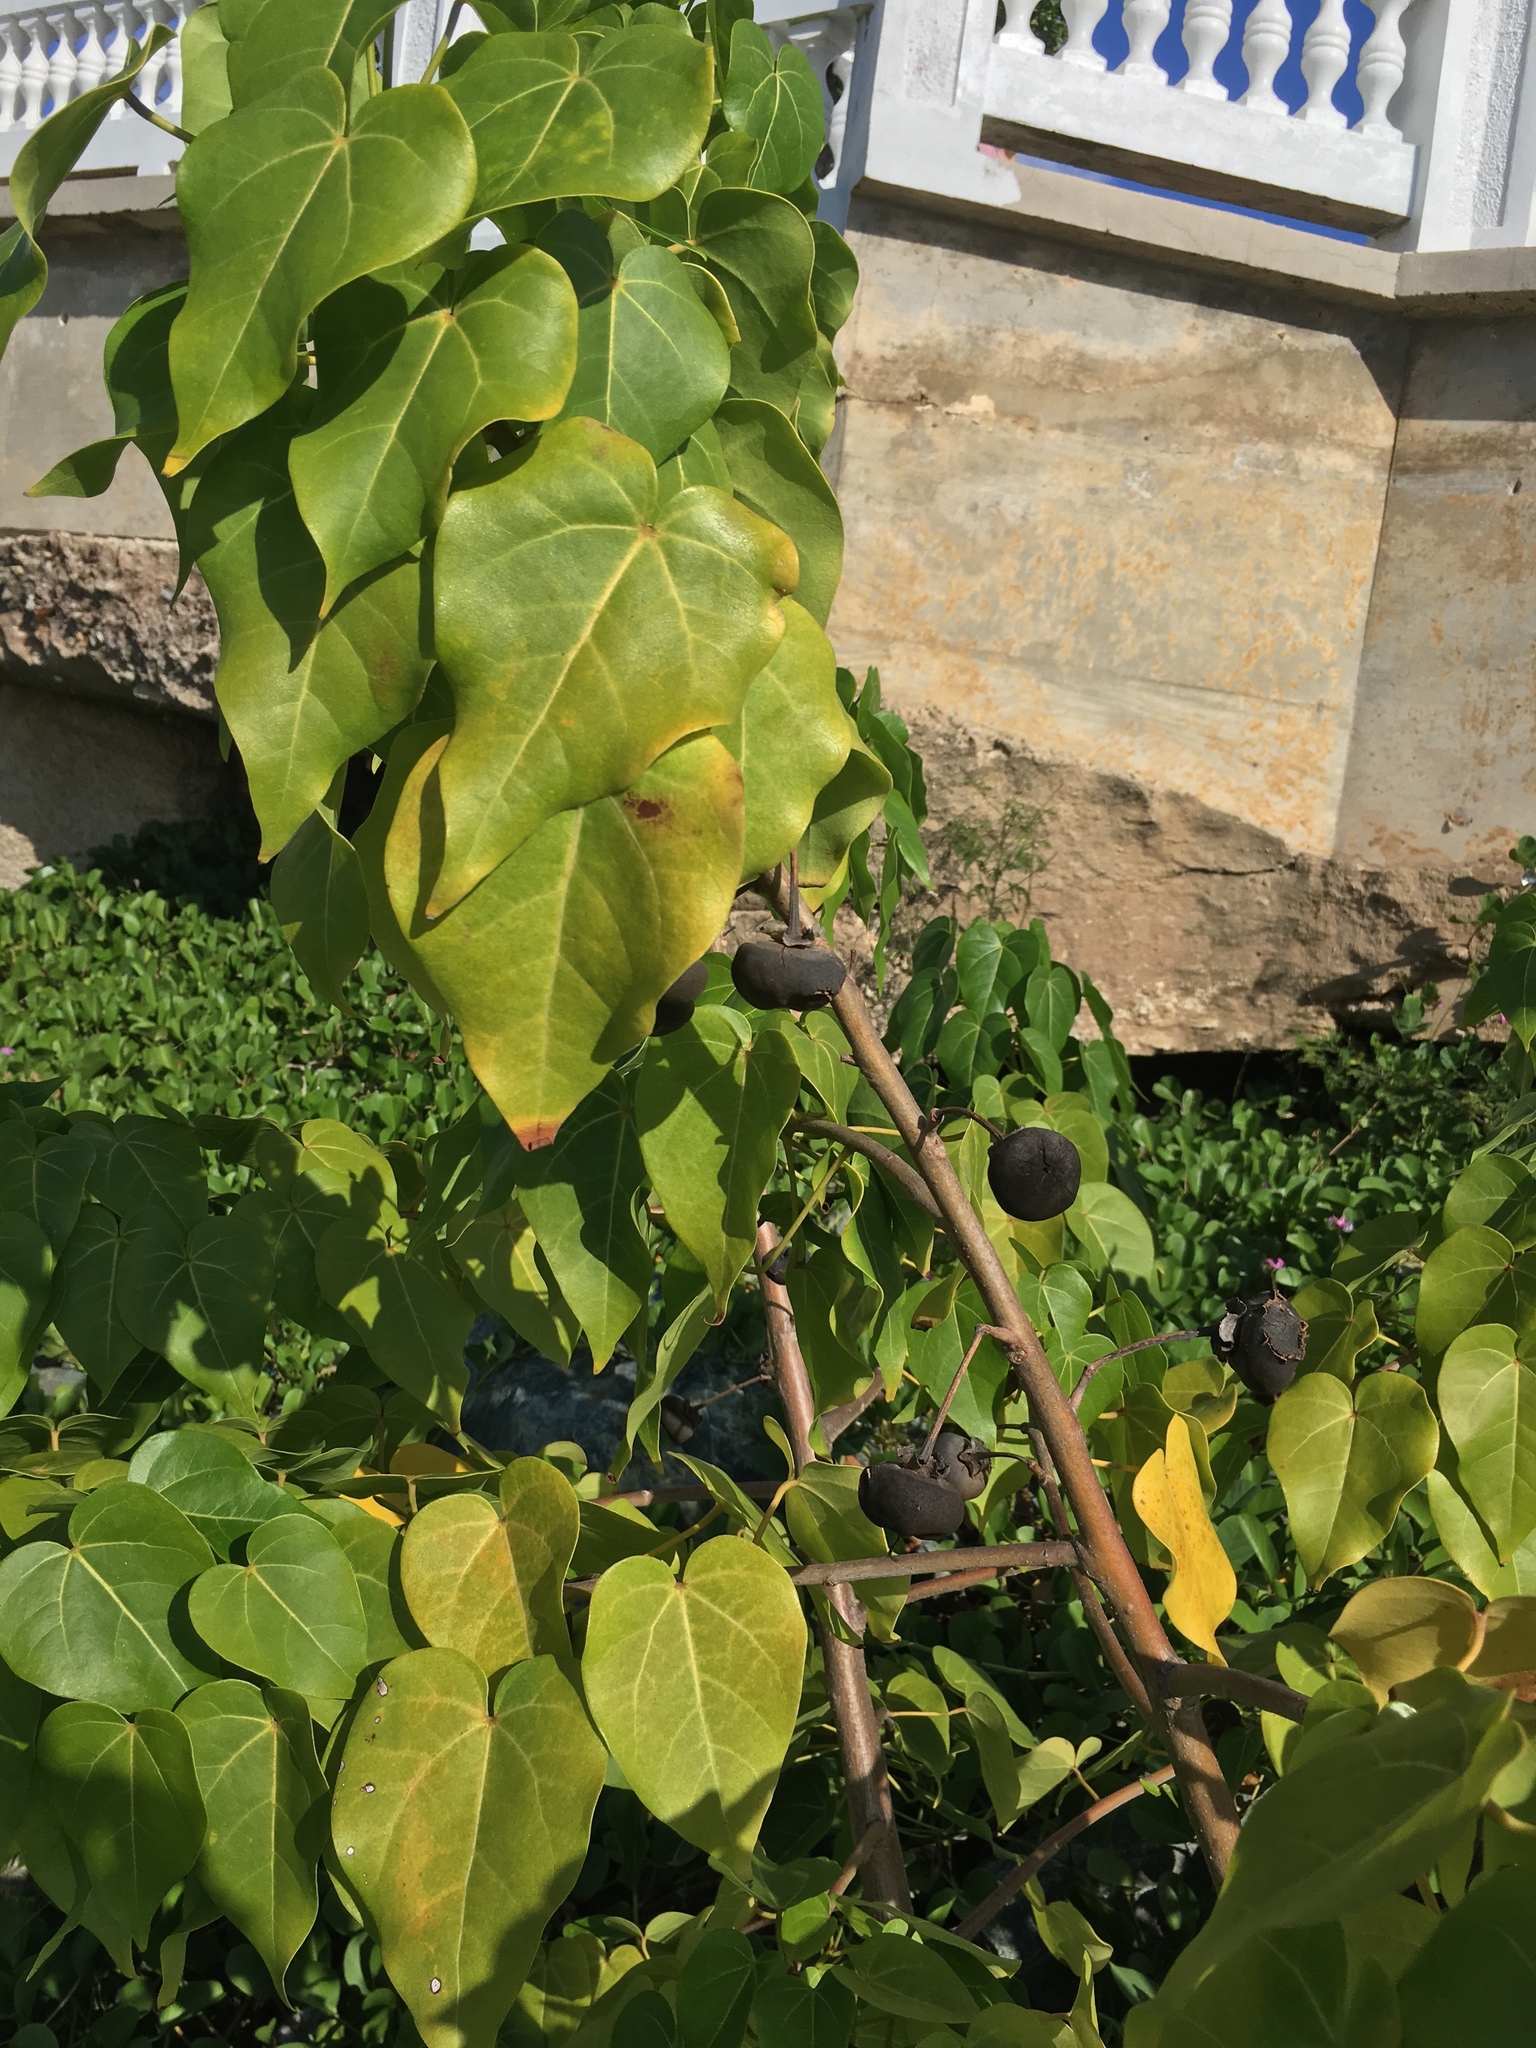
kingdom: Plantae
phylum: Tracheophyta
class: Magnoliopsida
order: Malvales
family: Malvaceae
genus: Thespesia
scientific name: Thespesia populnea
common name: Seaside mahoe
